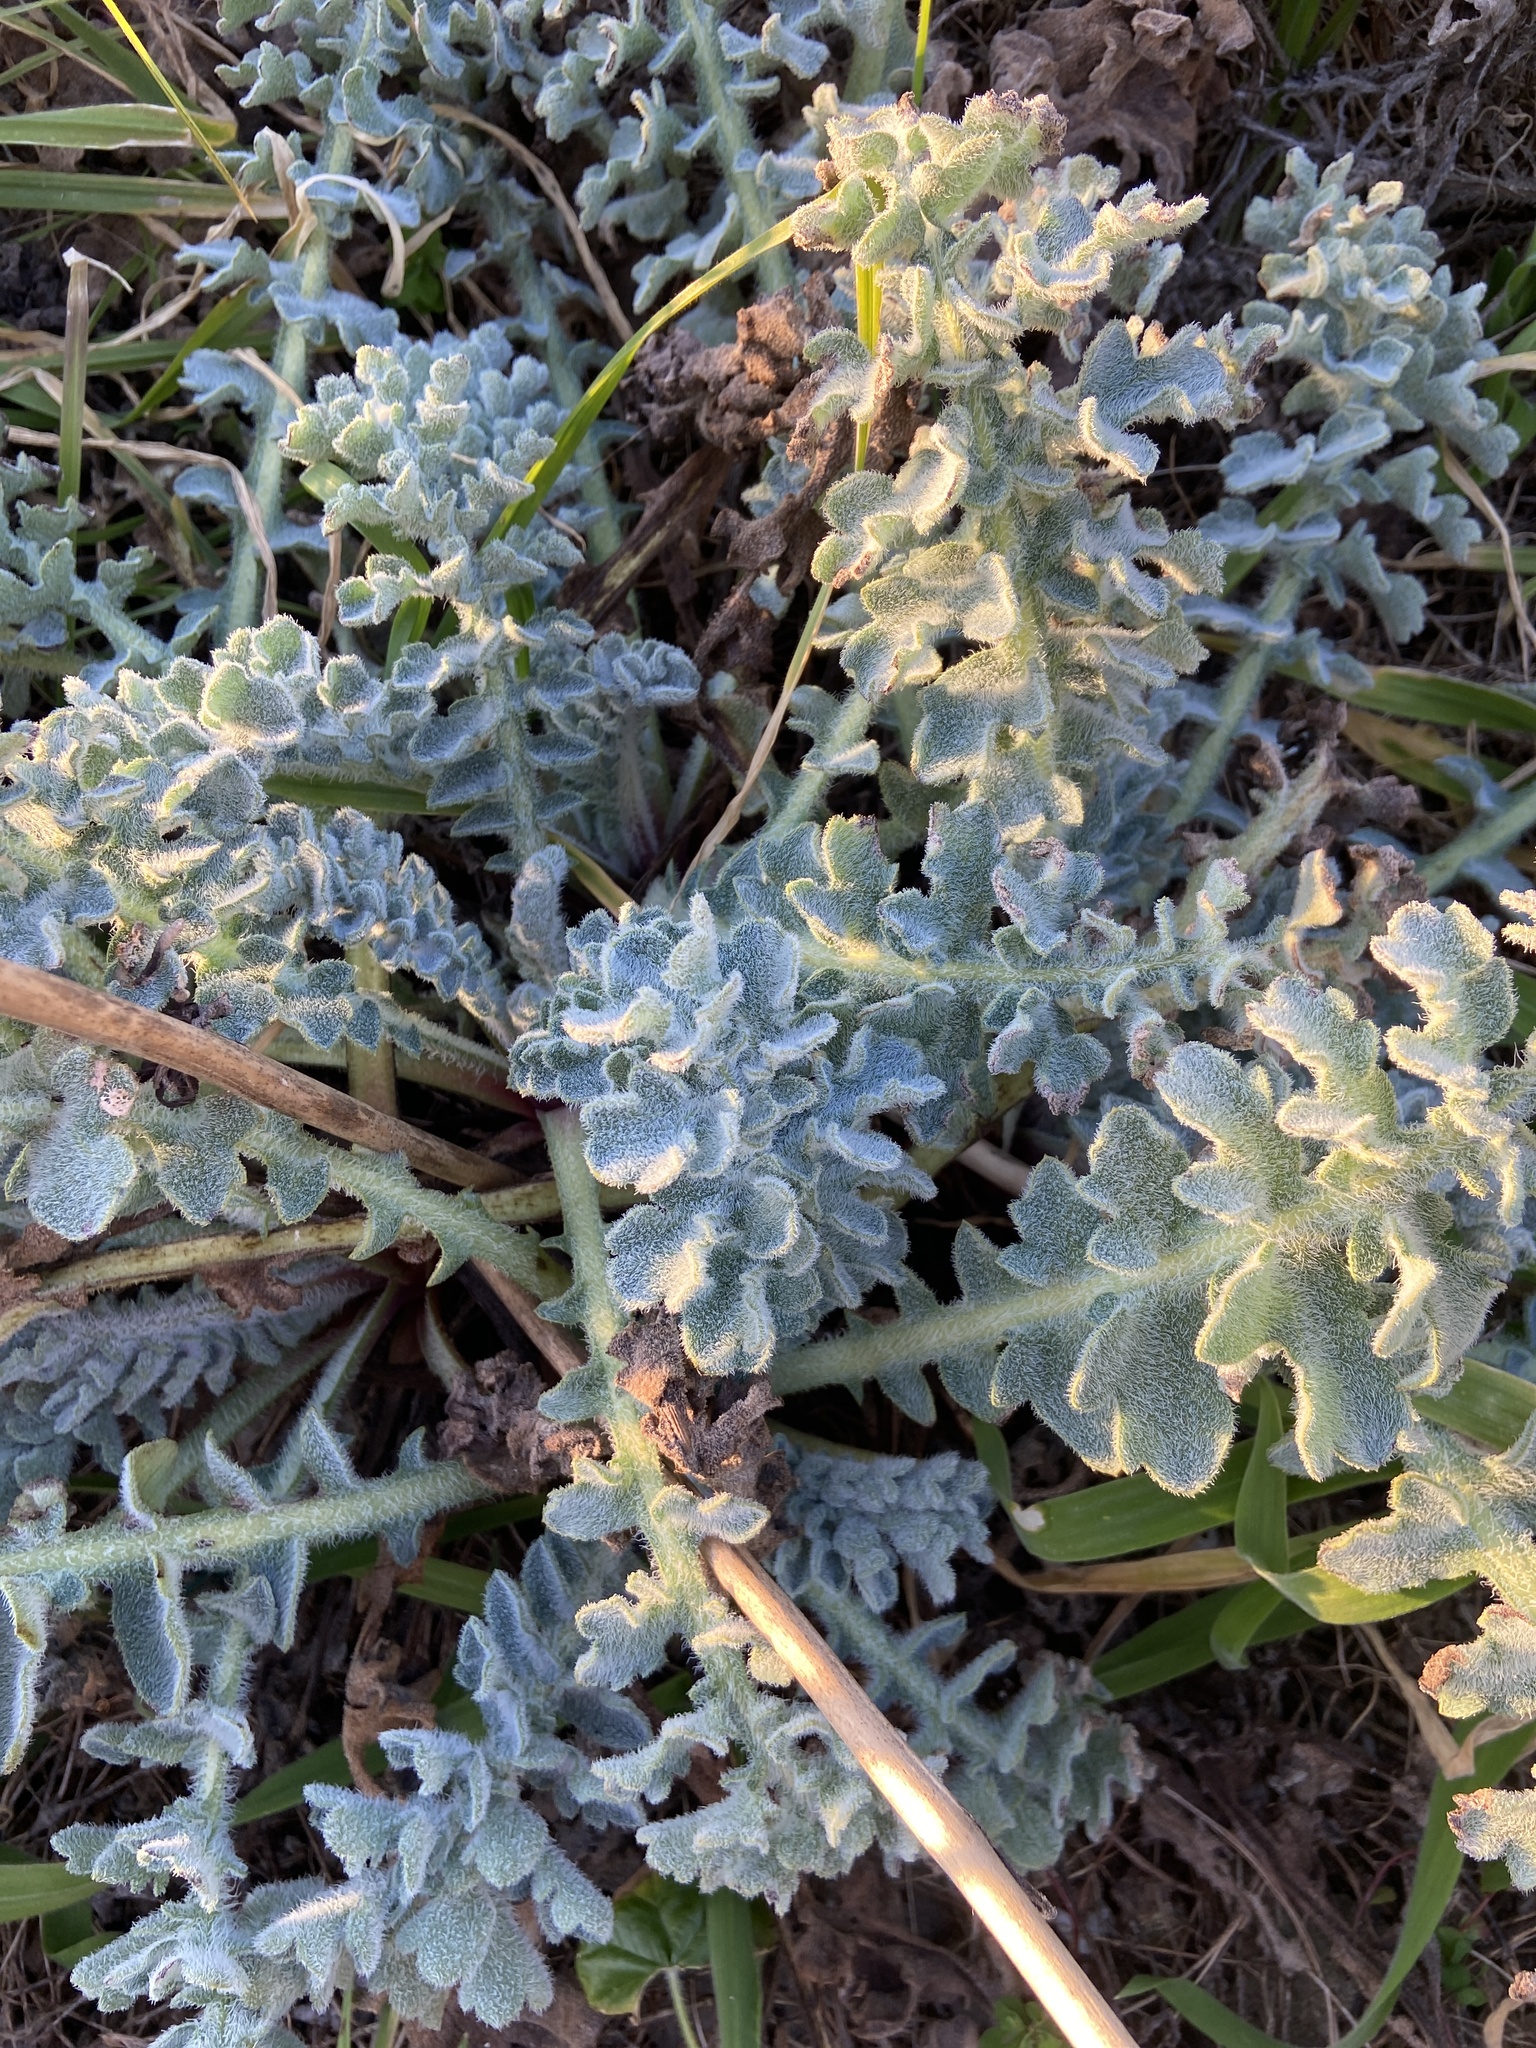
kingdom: Plantae
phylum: Tracheophyta
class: Magnoliopsida
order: Ranunculales
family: Papaveraceae
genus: Glaucium
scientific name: Glaucium flavum
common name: Yellow horned-poppy
